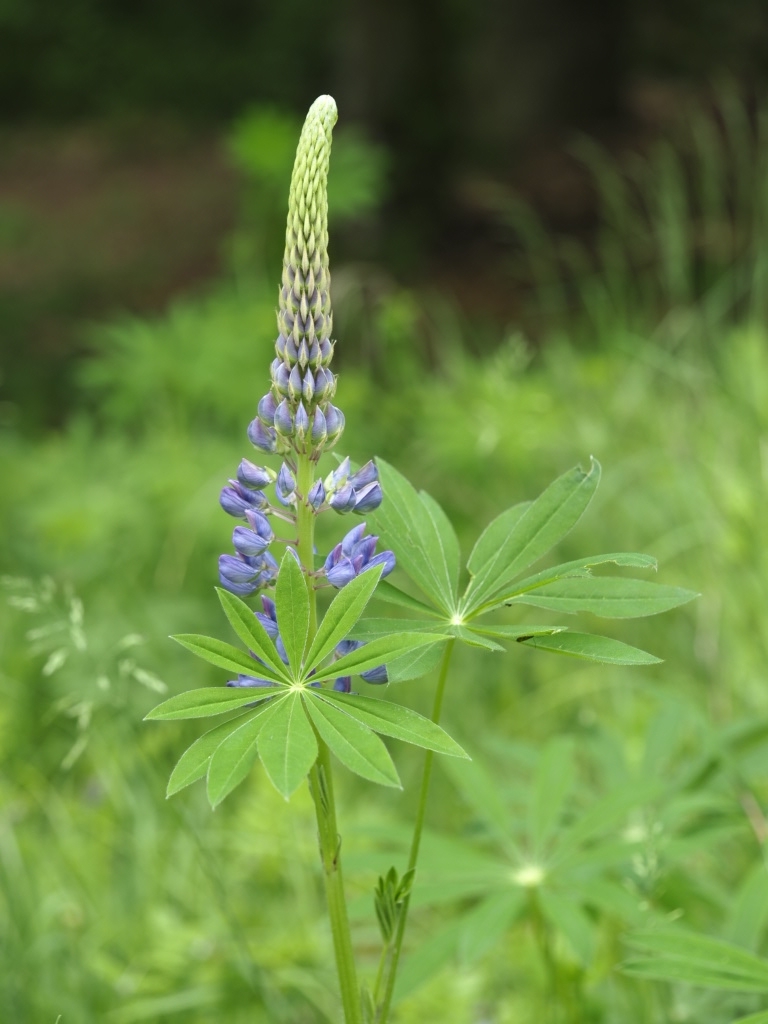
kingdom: Plantae
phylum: Tracheophyta
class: Magnoliopsida
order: Fabales
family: Fabaceae
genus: Lupinus
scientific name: Lupinus polyphyllus
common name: Garden lupin
